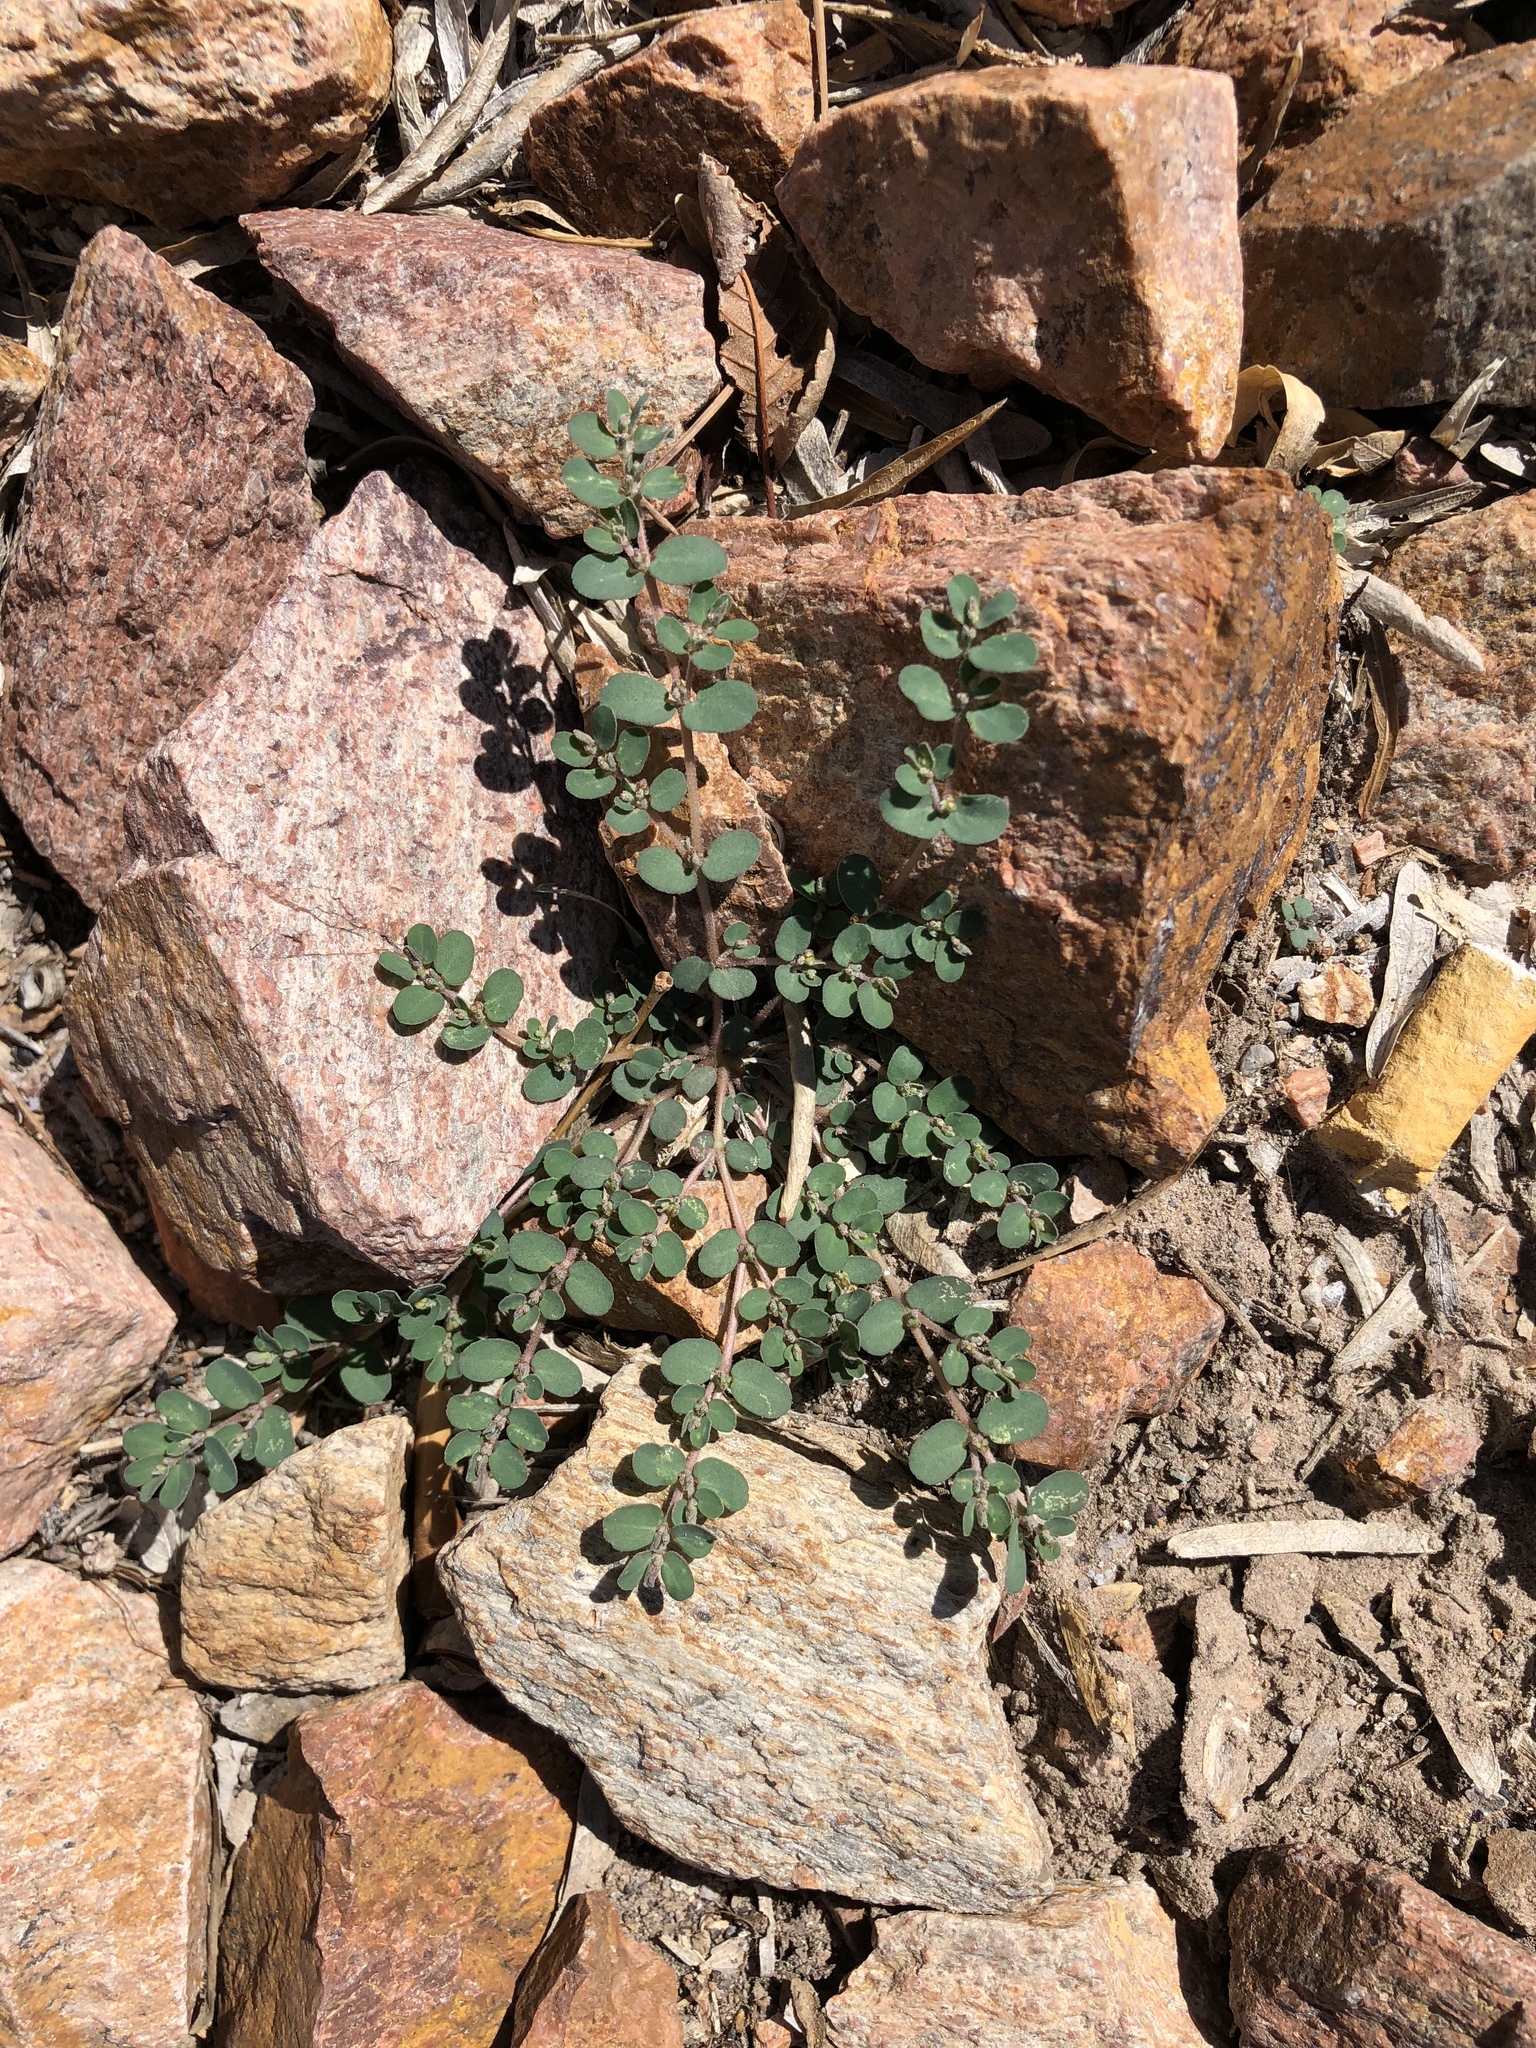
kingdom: Plantae
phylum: Tracheophyta
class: Magnoliopsida
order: Malpighiales
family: Euphorbiaceae
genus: Euphorbia
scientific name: Euphorbia prostrata
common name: Prostrate sandmat
